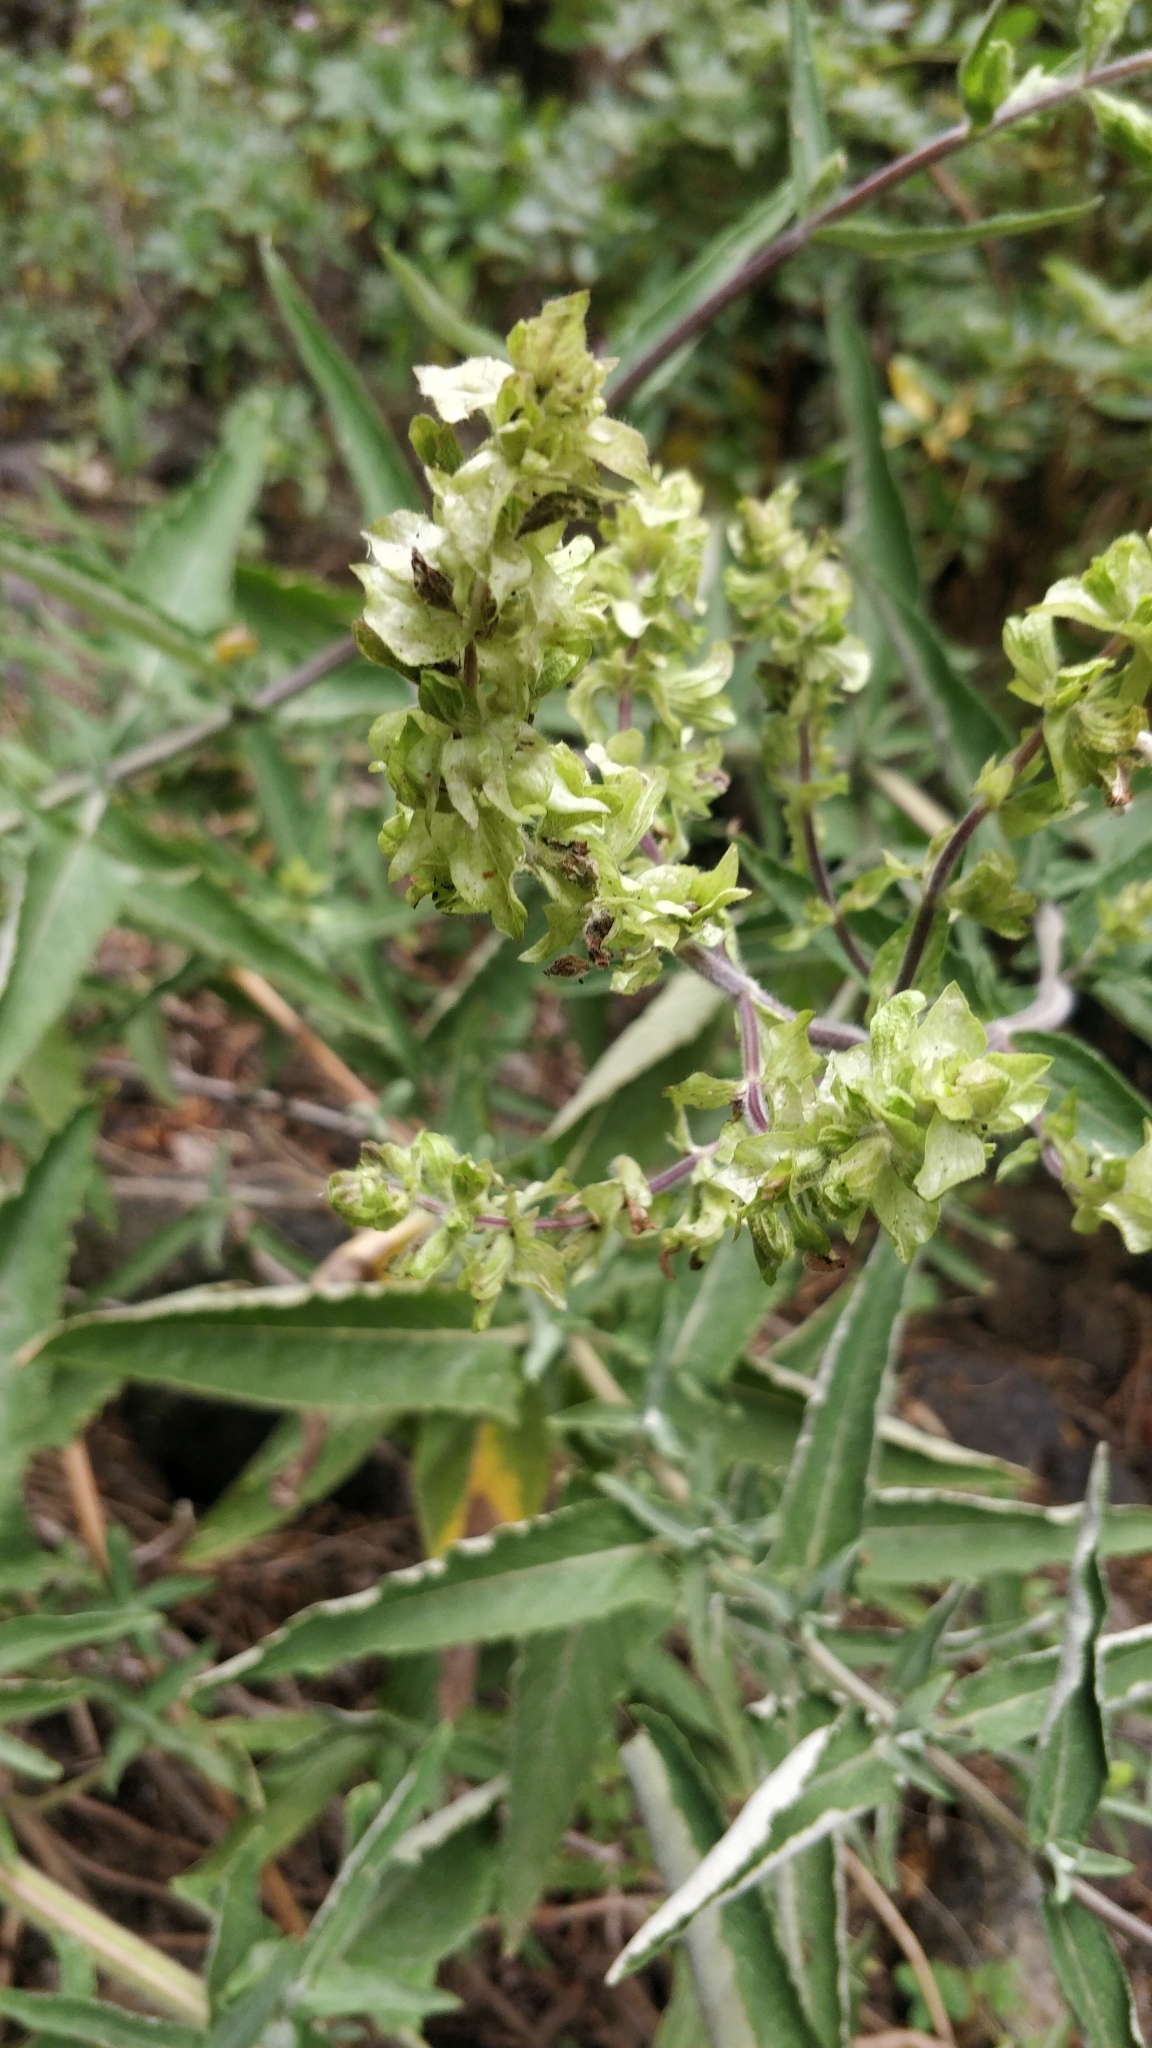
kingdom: Plantae
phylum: Tracheophyta
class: Magnoliopsida
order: Lamiales
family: Lamiaceae
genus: Salvia
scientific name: Salvia canariensis
